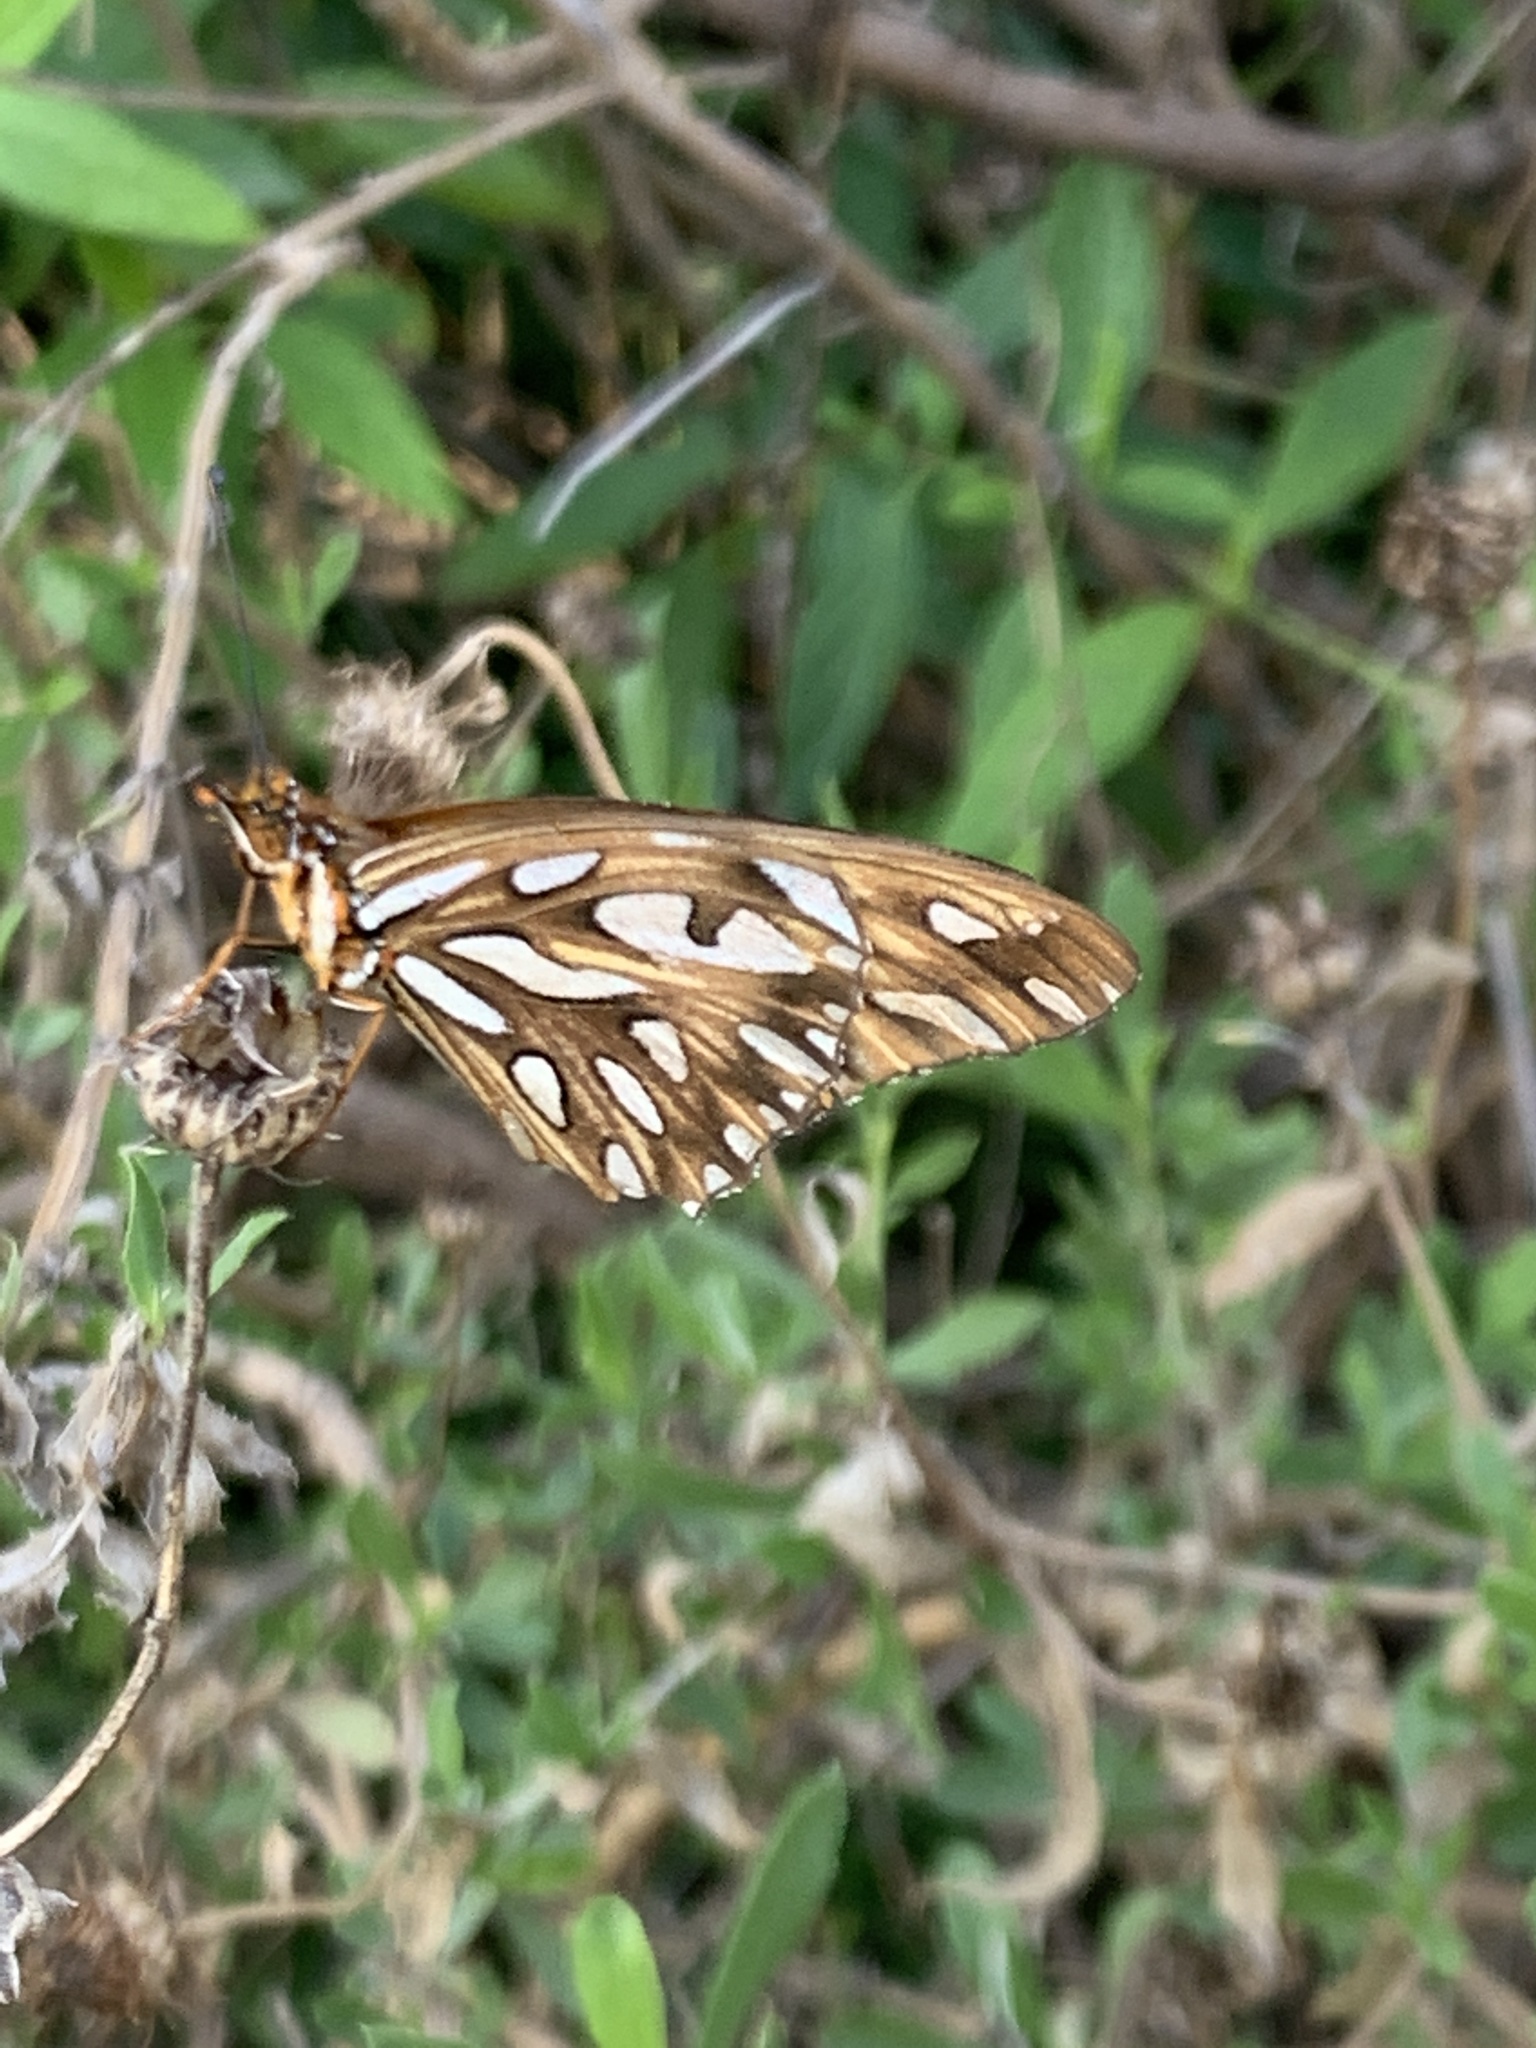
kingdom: Animalia
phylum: Arthropoda
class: Insecta
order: Lepidoptera
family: Nymphalidae
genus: Dione
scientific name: Dione vanillae
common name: Gulf fritillary
